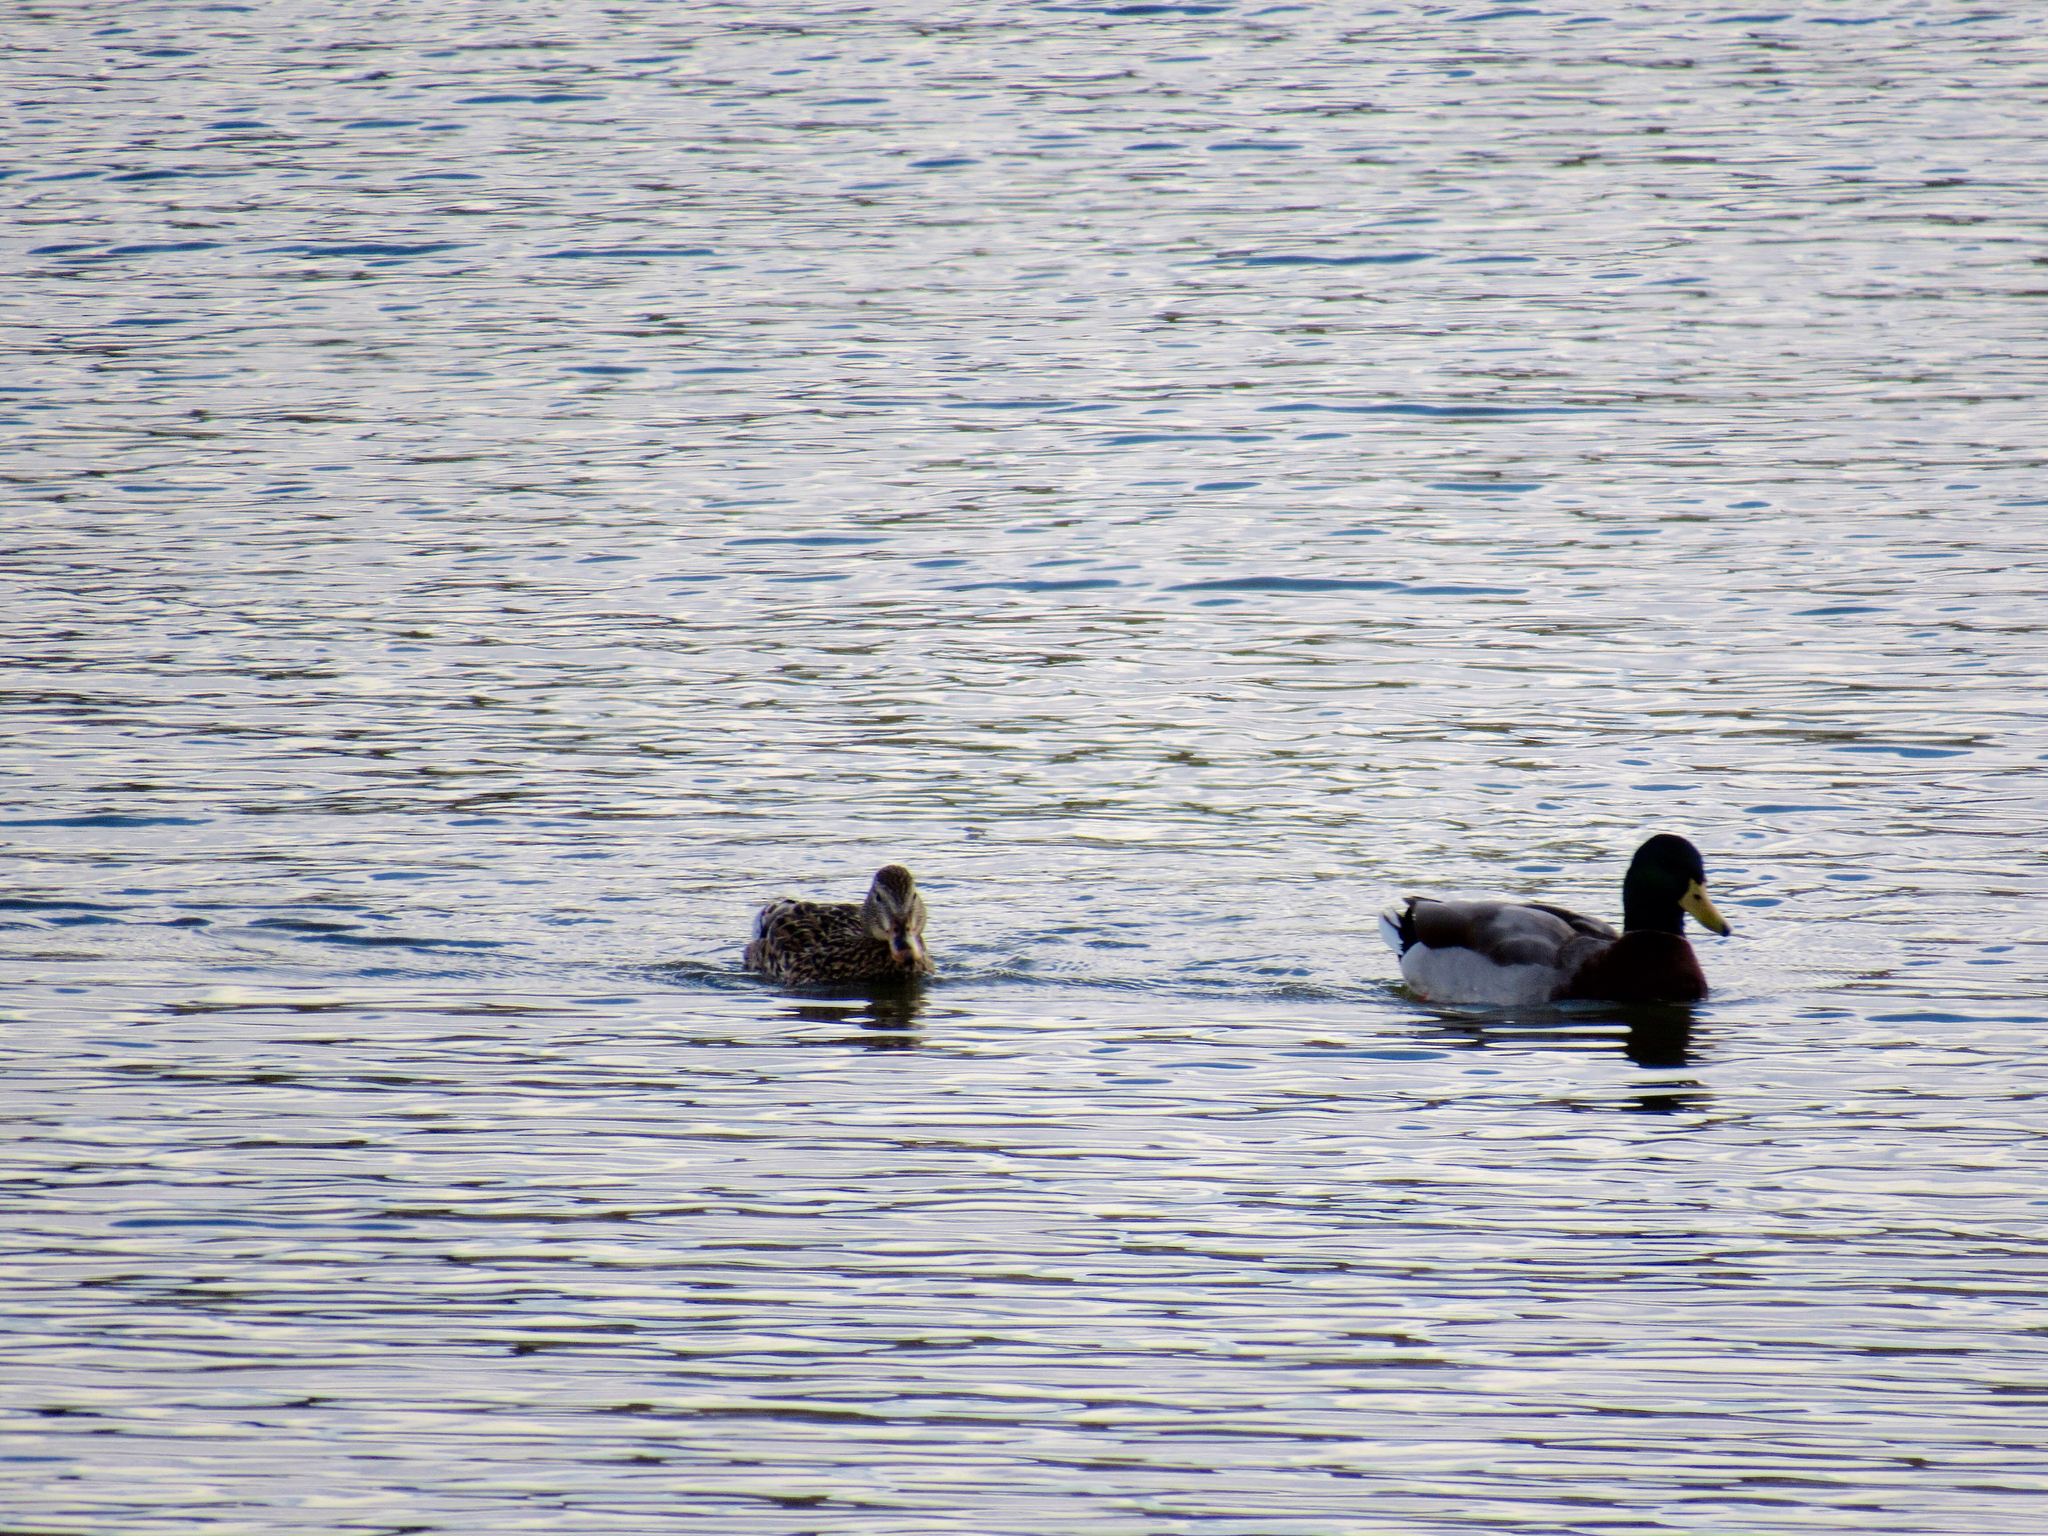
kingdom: Animalia
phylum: Chordata
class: Aves
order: Anseriformes
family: Anatidae
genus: Anas
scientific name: Anas platyrhynchos
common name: Mallard
